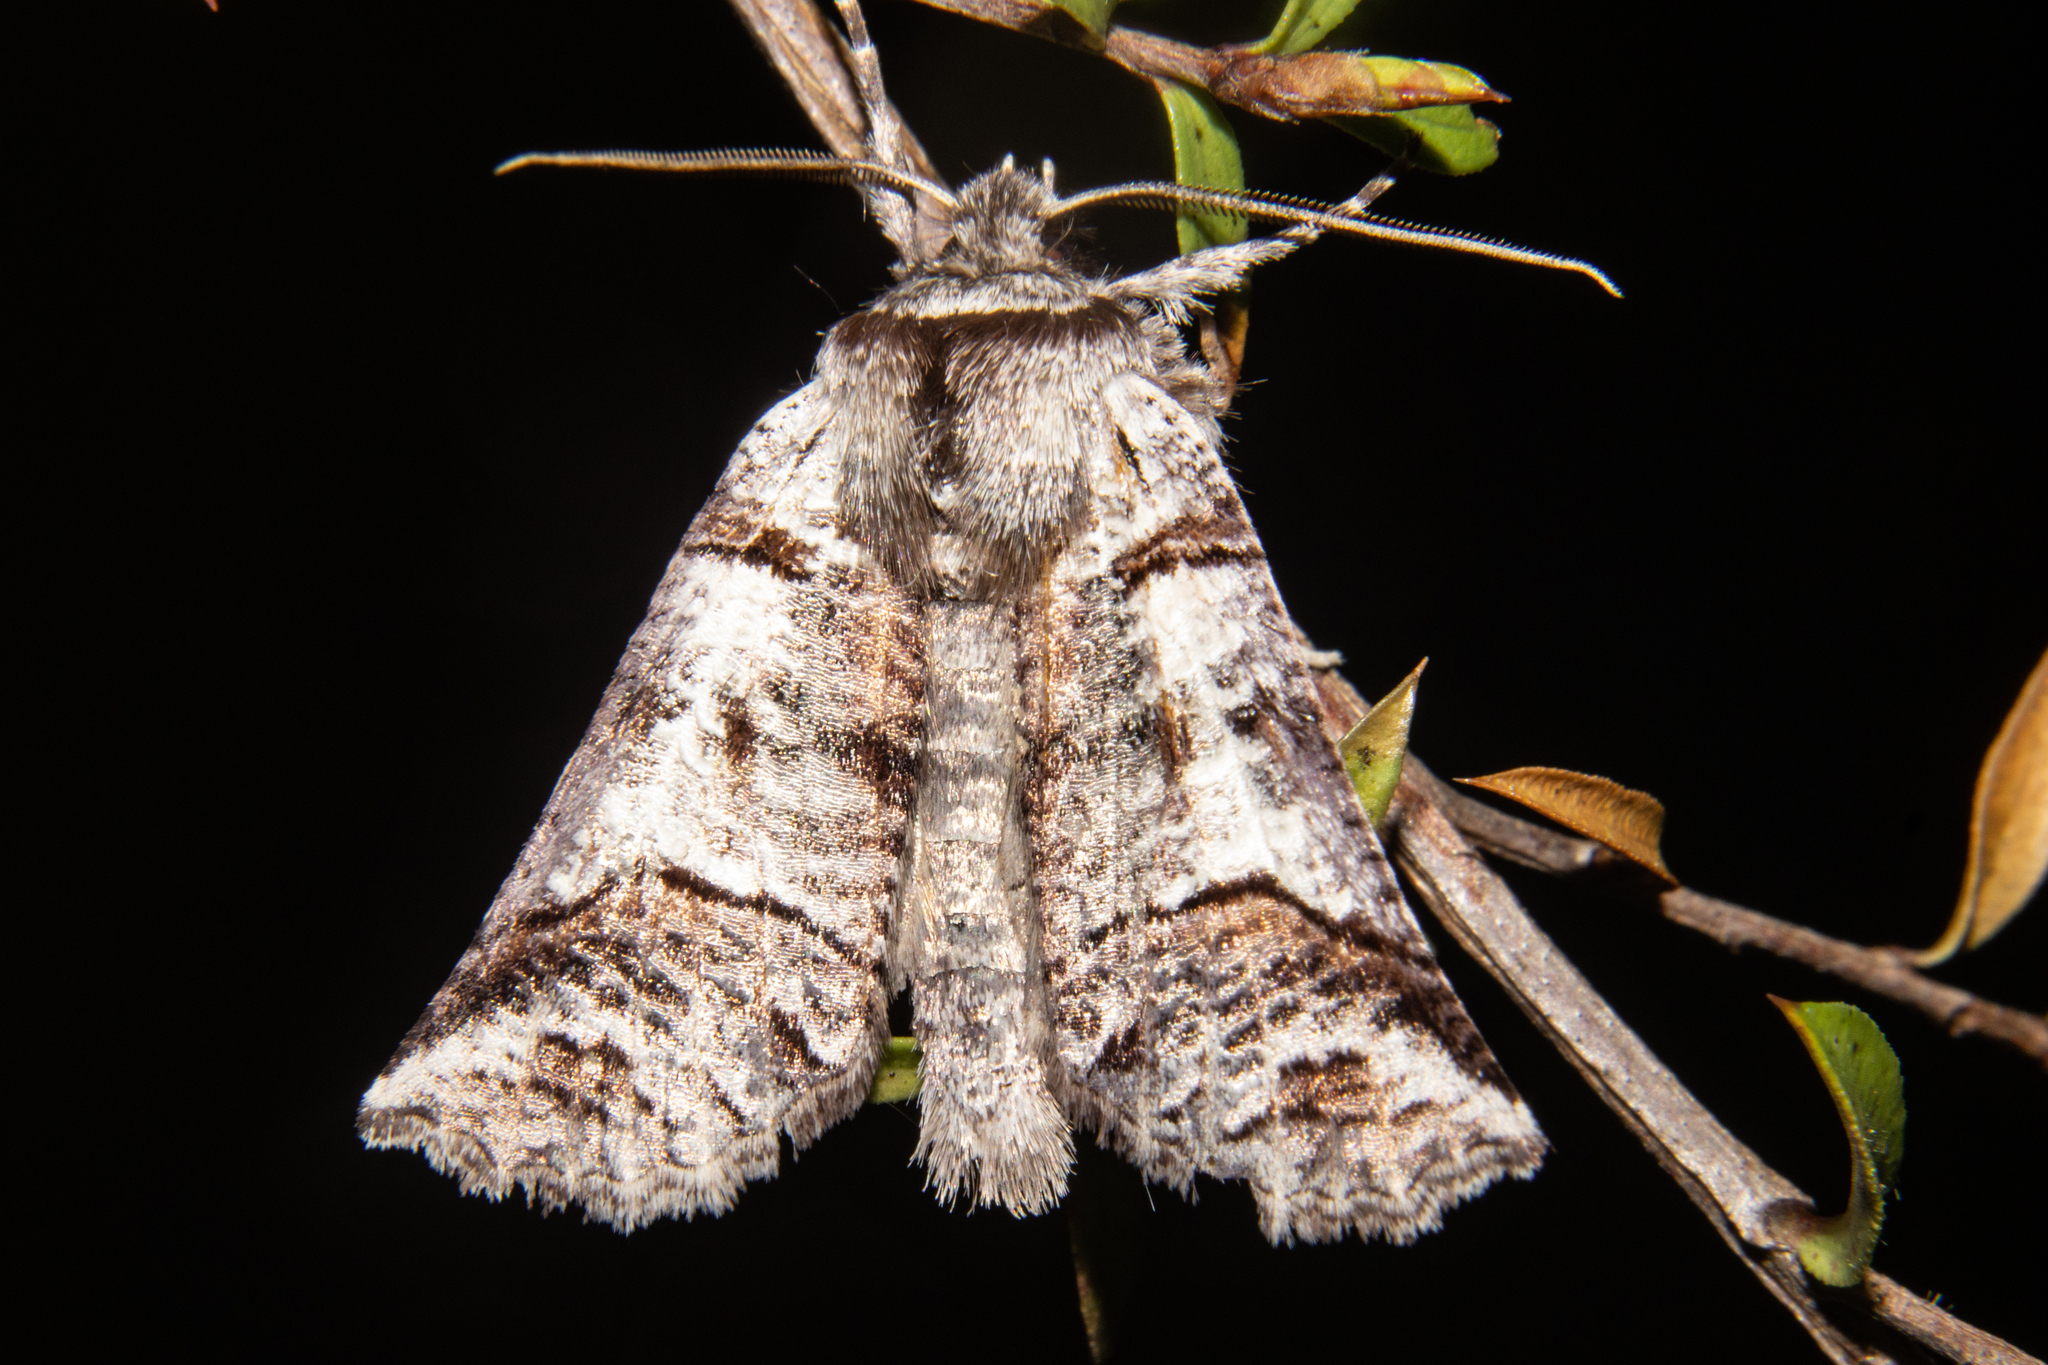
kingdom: Animalia
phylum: Arthropoda
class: Insecta
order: Lepidoptera
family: Geometridae
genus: Declana
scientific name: Declana
